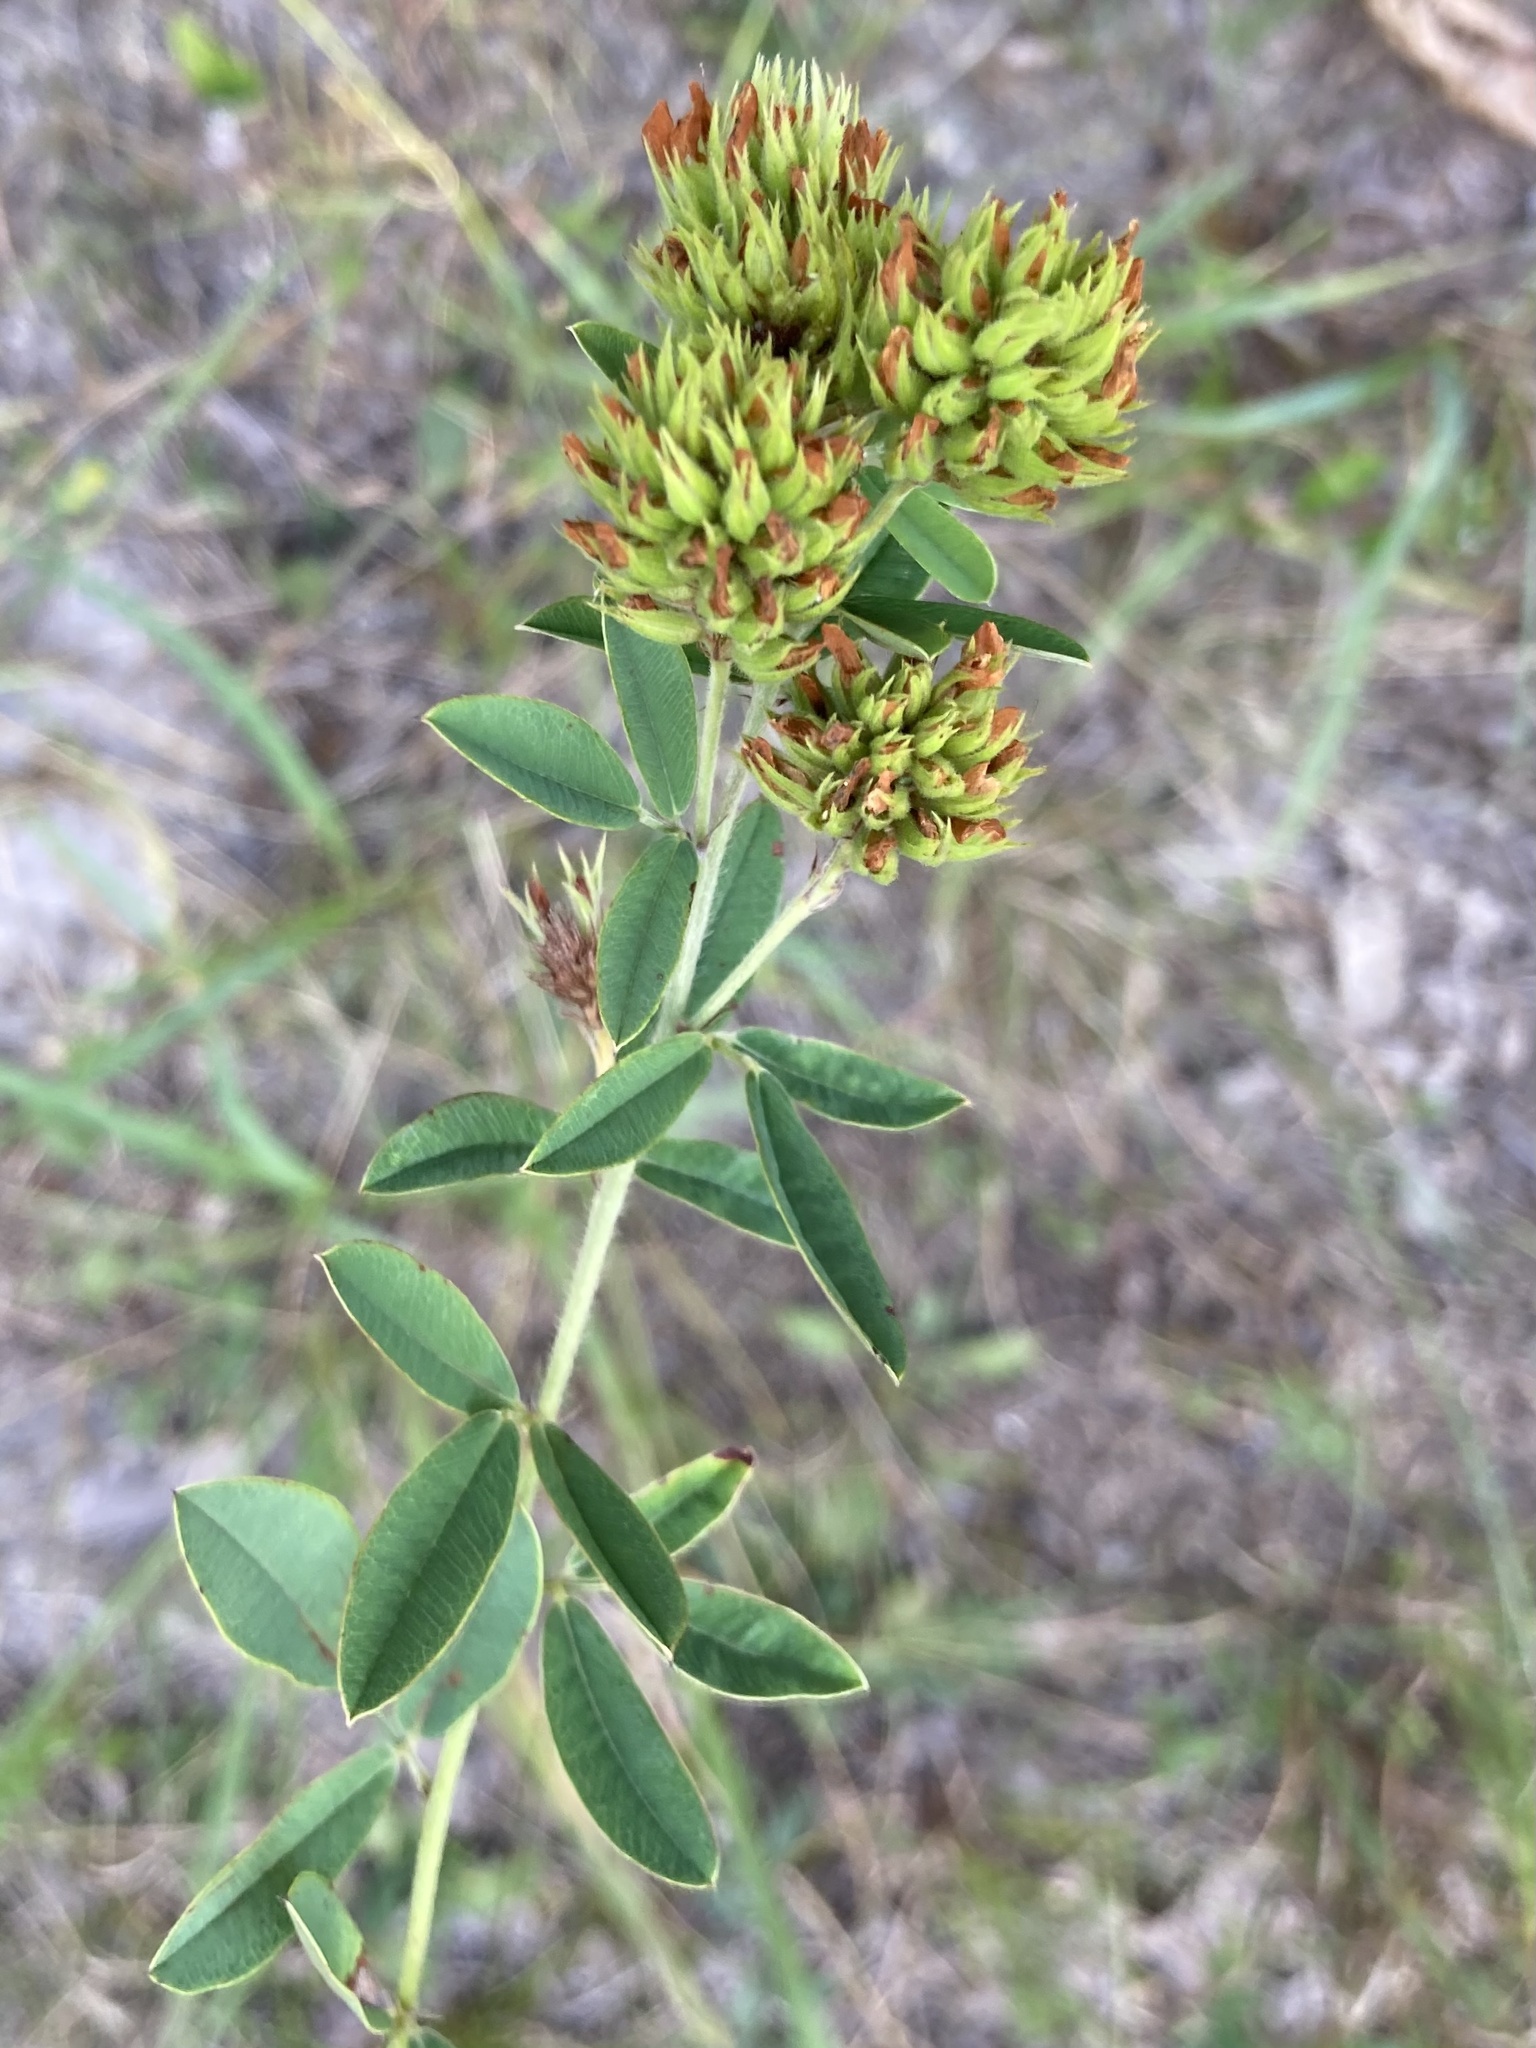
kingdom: Plantae
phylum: Tracheophyta
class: Magnoliopsida
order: Fabales
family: Fabaceae
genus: Lespedeza
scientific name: Lespedeza capitata
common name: Dusty clover
